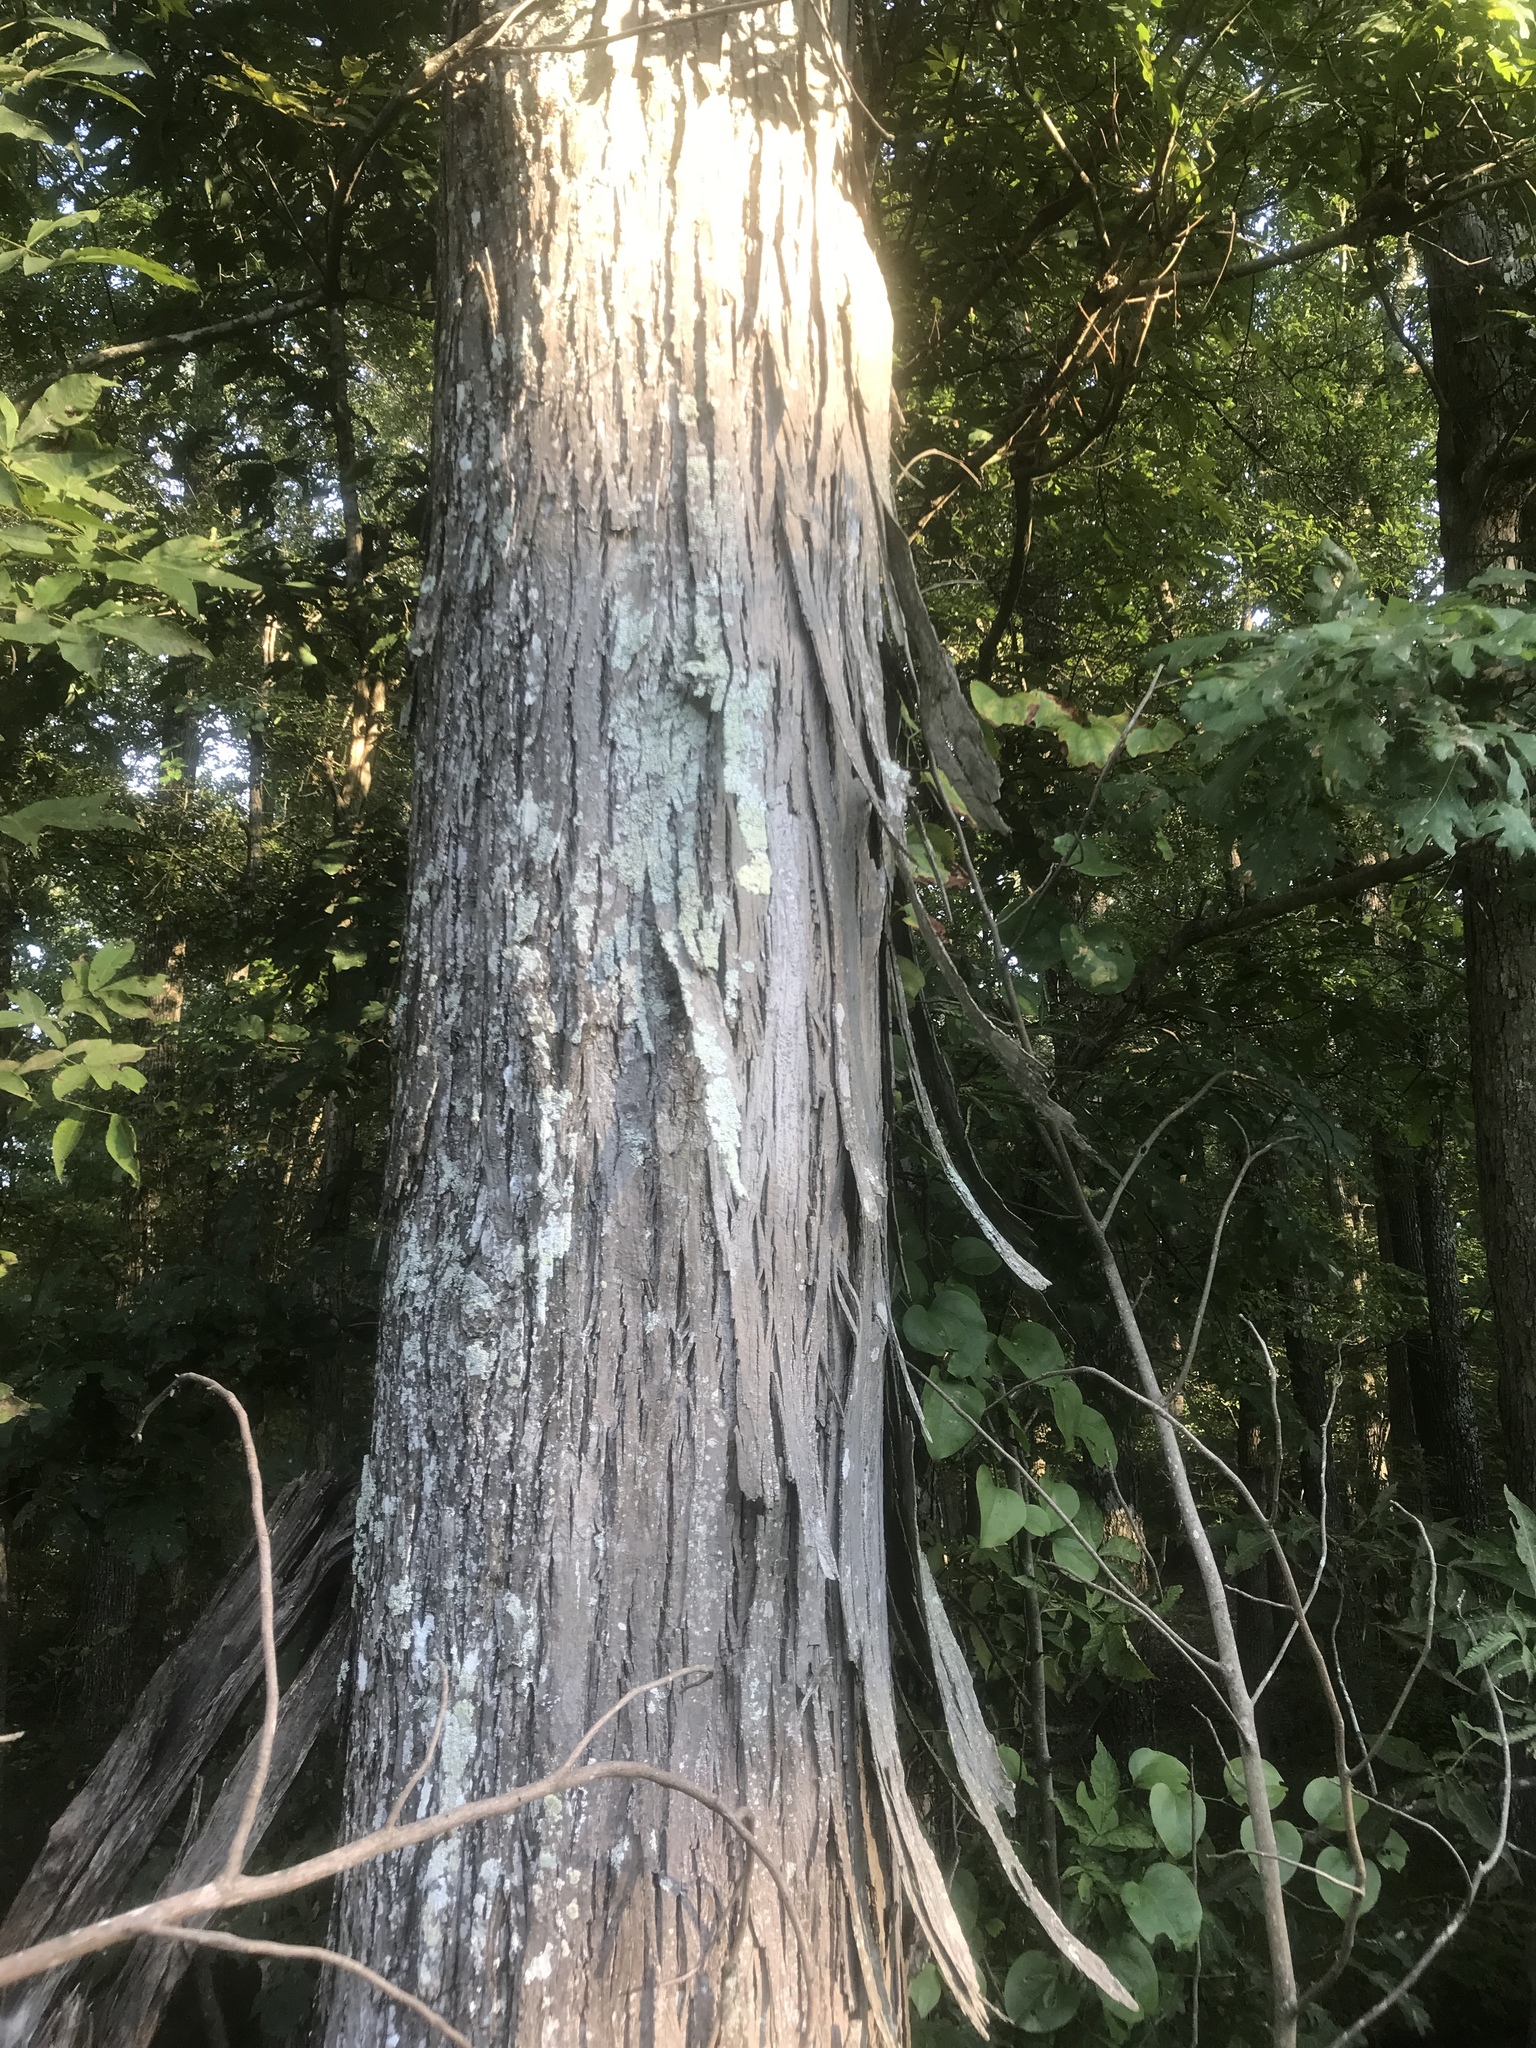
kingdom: Plantae
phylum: Tracheophyta
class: Magnoliopsida
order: Fagales
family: Juglandaceae
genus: Carya
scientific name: Carya carolinae-septentrionalis
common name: Carolina hickory
